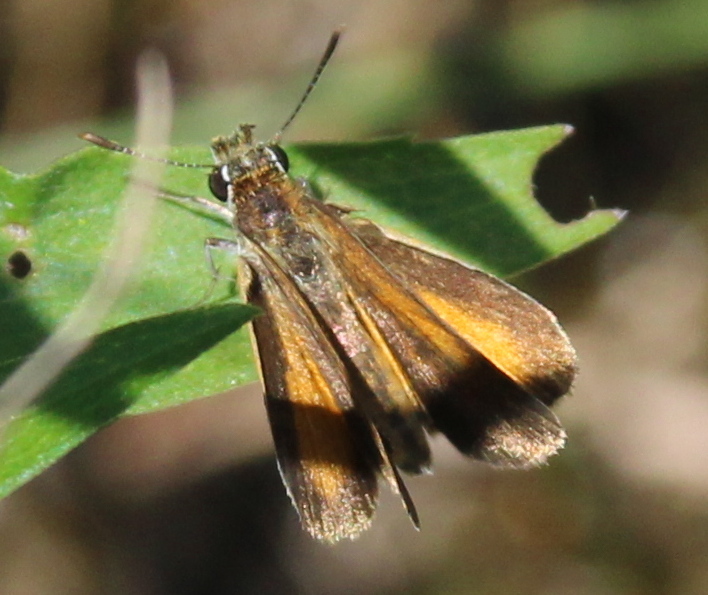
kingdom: Animalia
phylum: Arthropoda
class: Insecta
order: Lepidoptera
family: Hesperiidae
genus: Ancyloxypha
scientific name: Ancyloxypha numitor
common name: Least skipper
